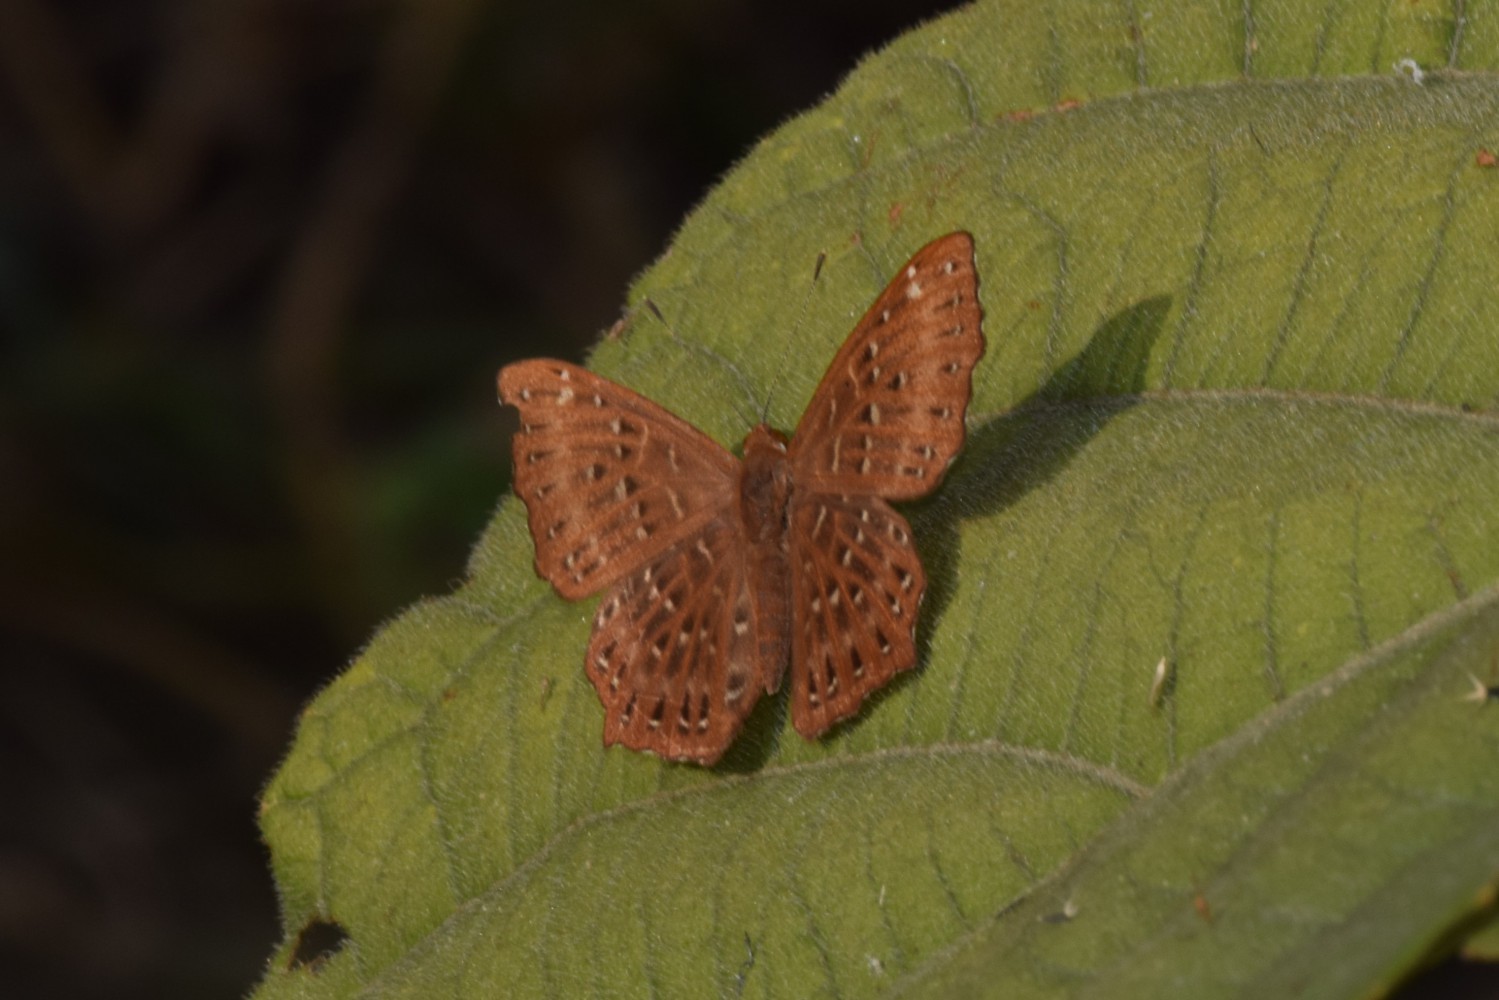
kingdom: Animalia
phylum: Arthropoda
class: Insecta
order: Lepidoptera
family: Riodinidae
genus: Zemeros
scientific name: Zemeros flegyas
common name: Punchinello
